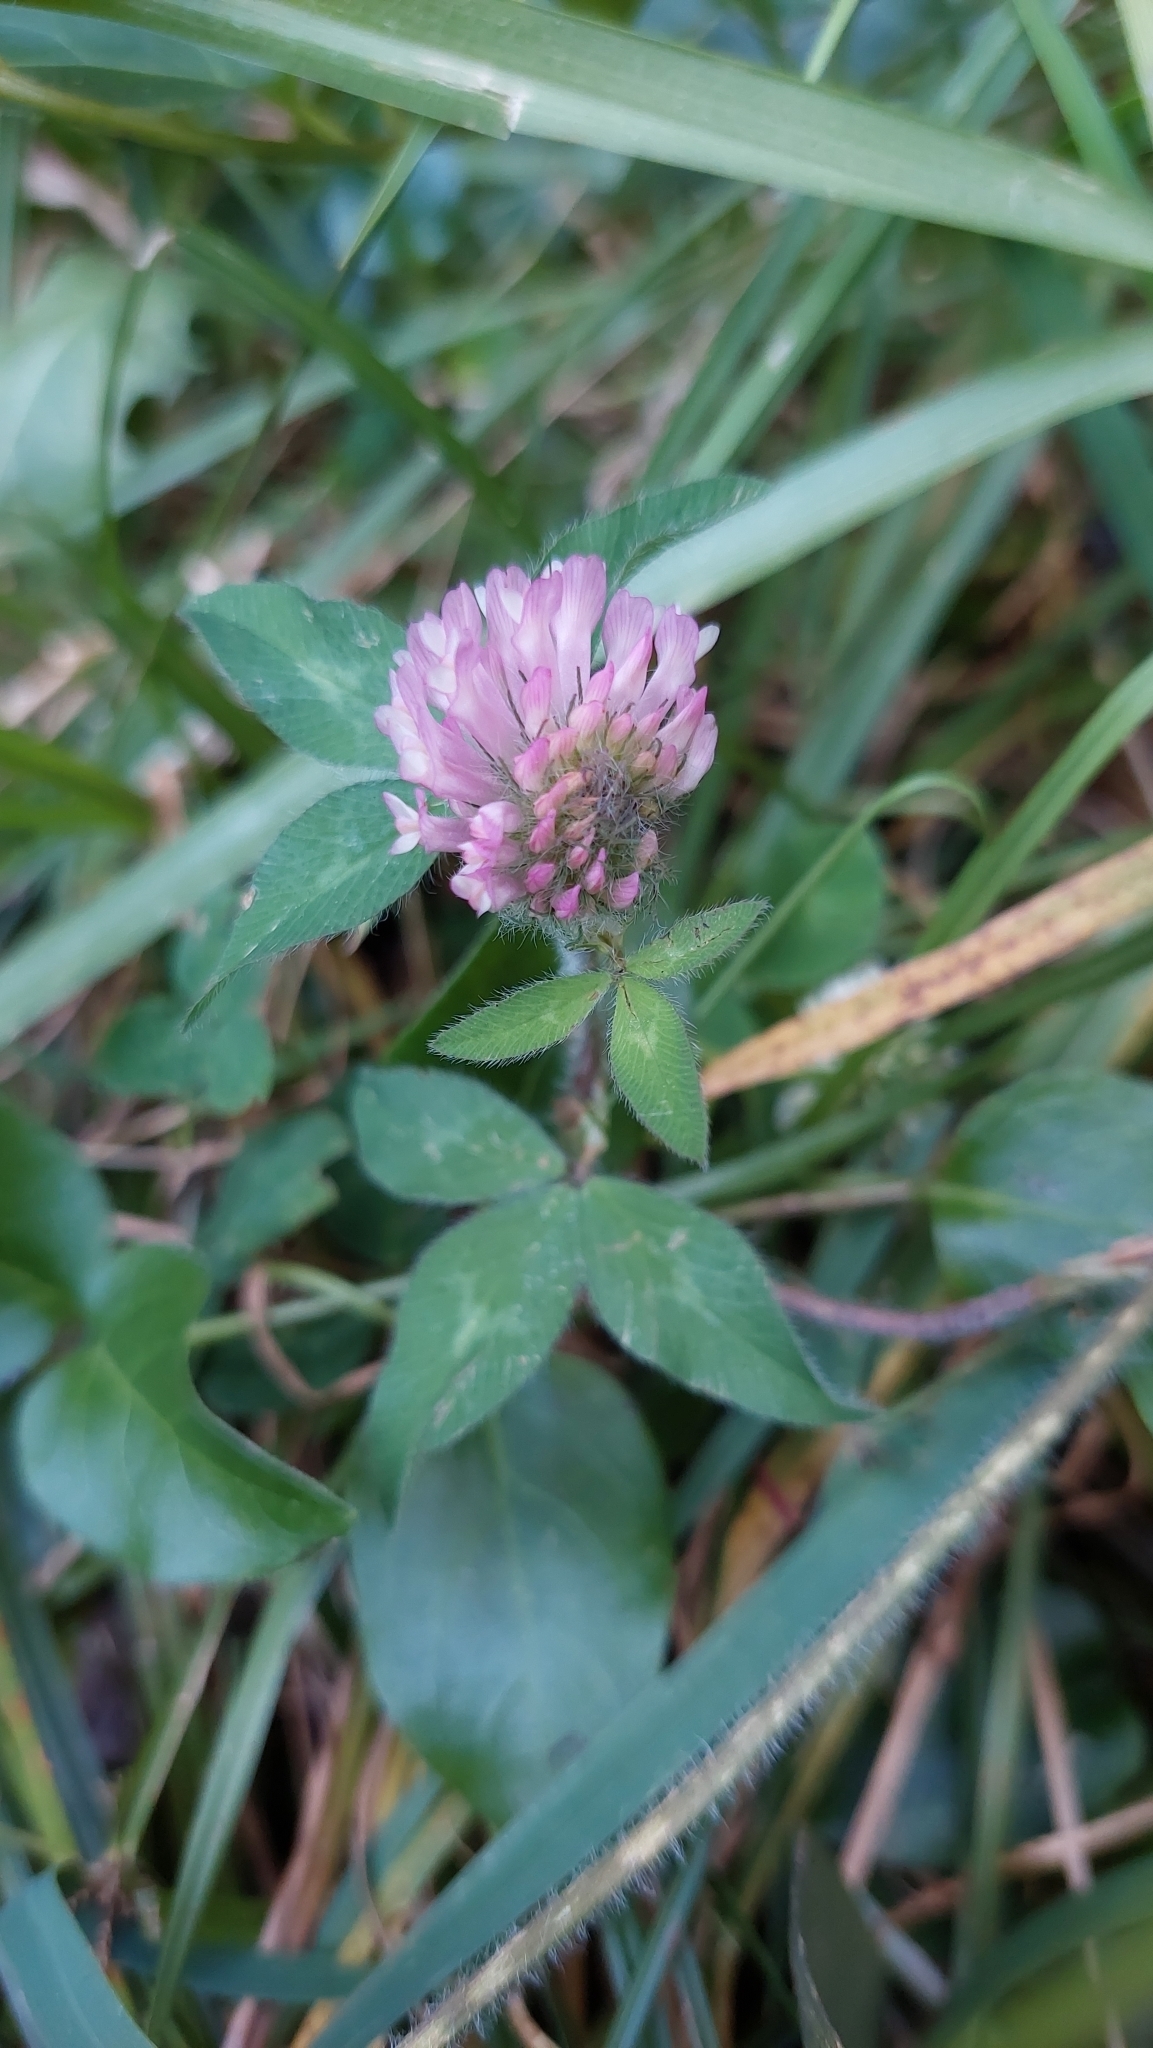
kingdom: Plantae
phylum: Tracheophyta
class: Magnoliopsida
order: Fabales
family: Fabaceae
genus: Trifolium
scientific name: Trifolium pratense
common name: Red clover
